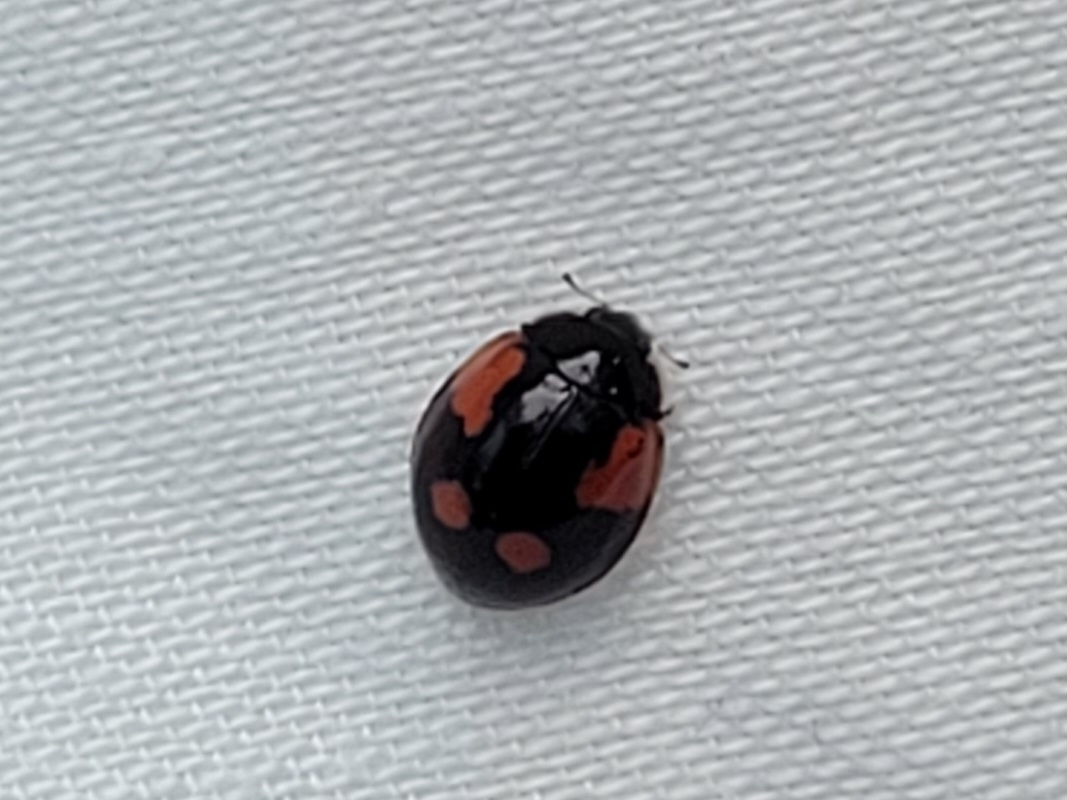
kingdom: Animalia
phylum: Arthropoda
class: Insecta
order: Coleoptera
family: Coccinellidae
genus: Adalia
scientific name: Adalia bipunctata
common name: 2-spot ladybird
